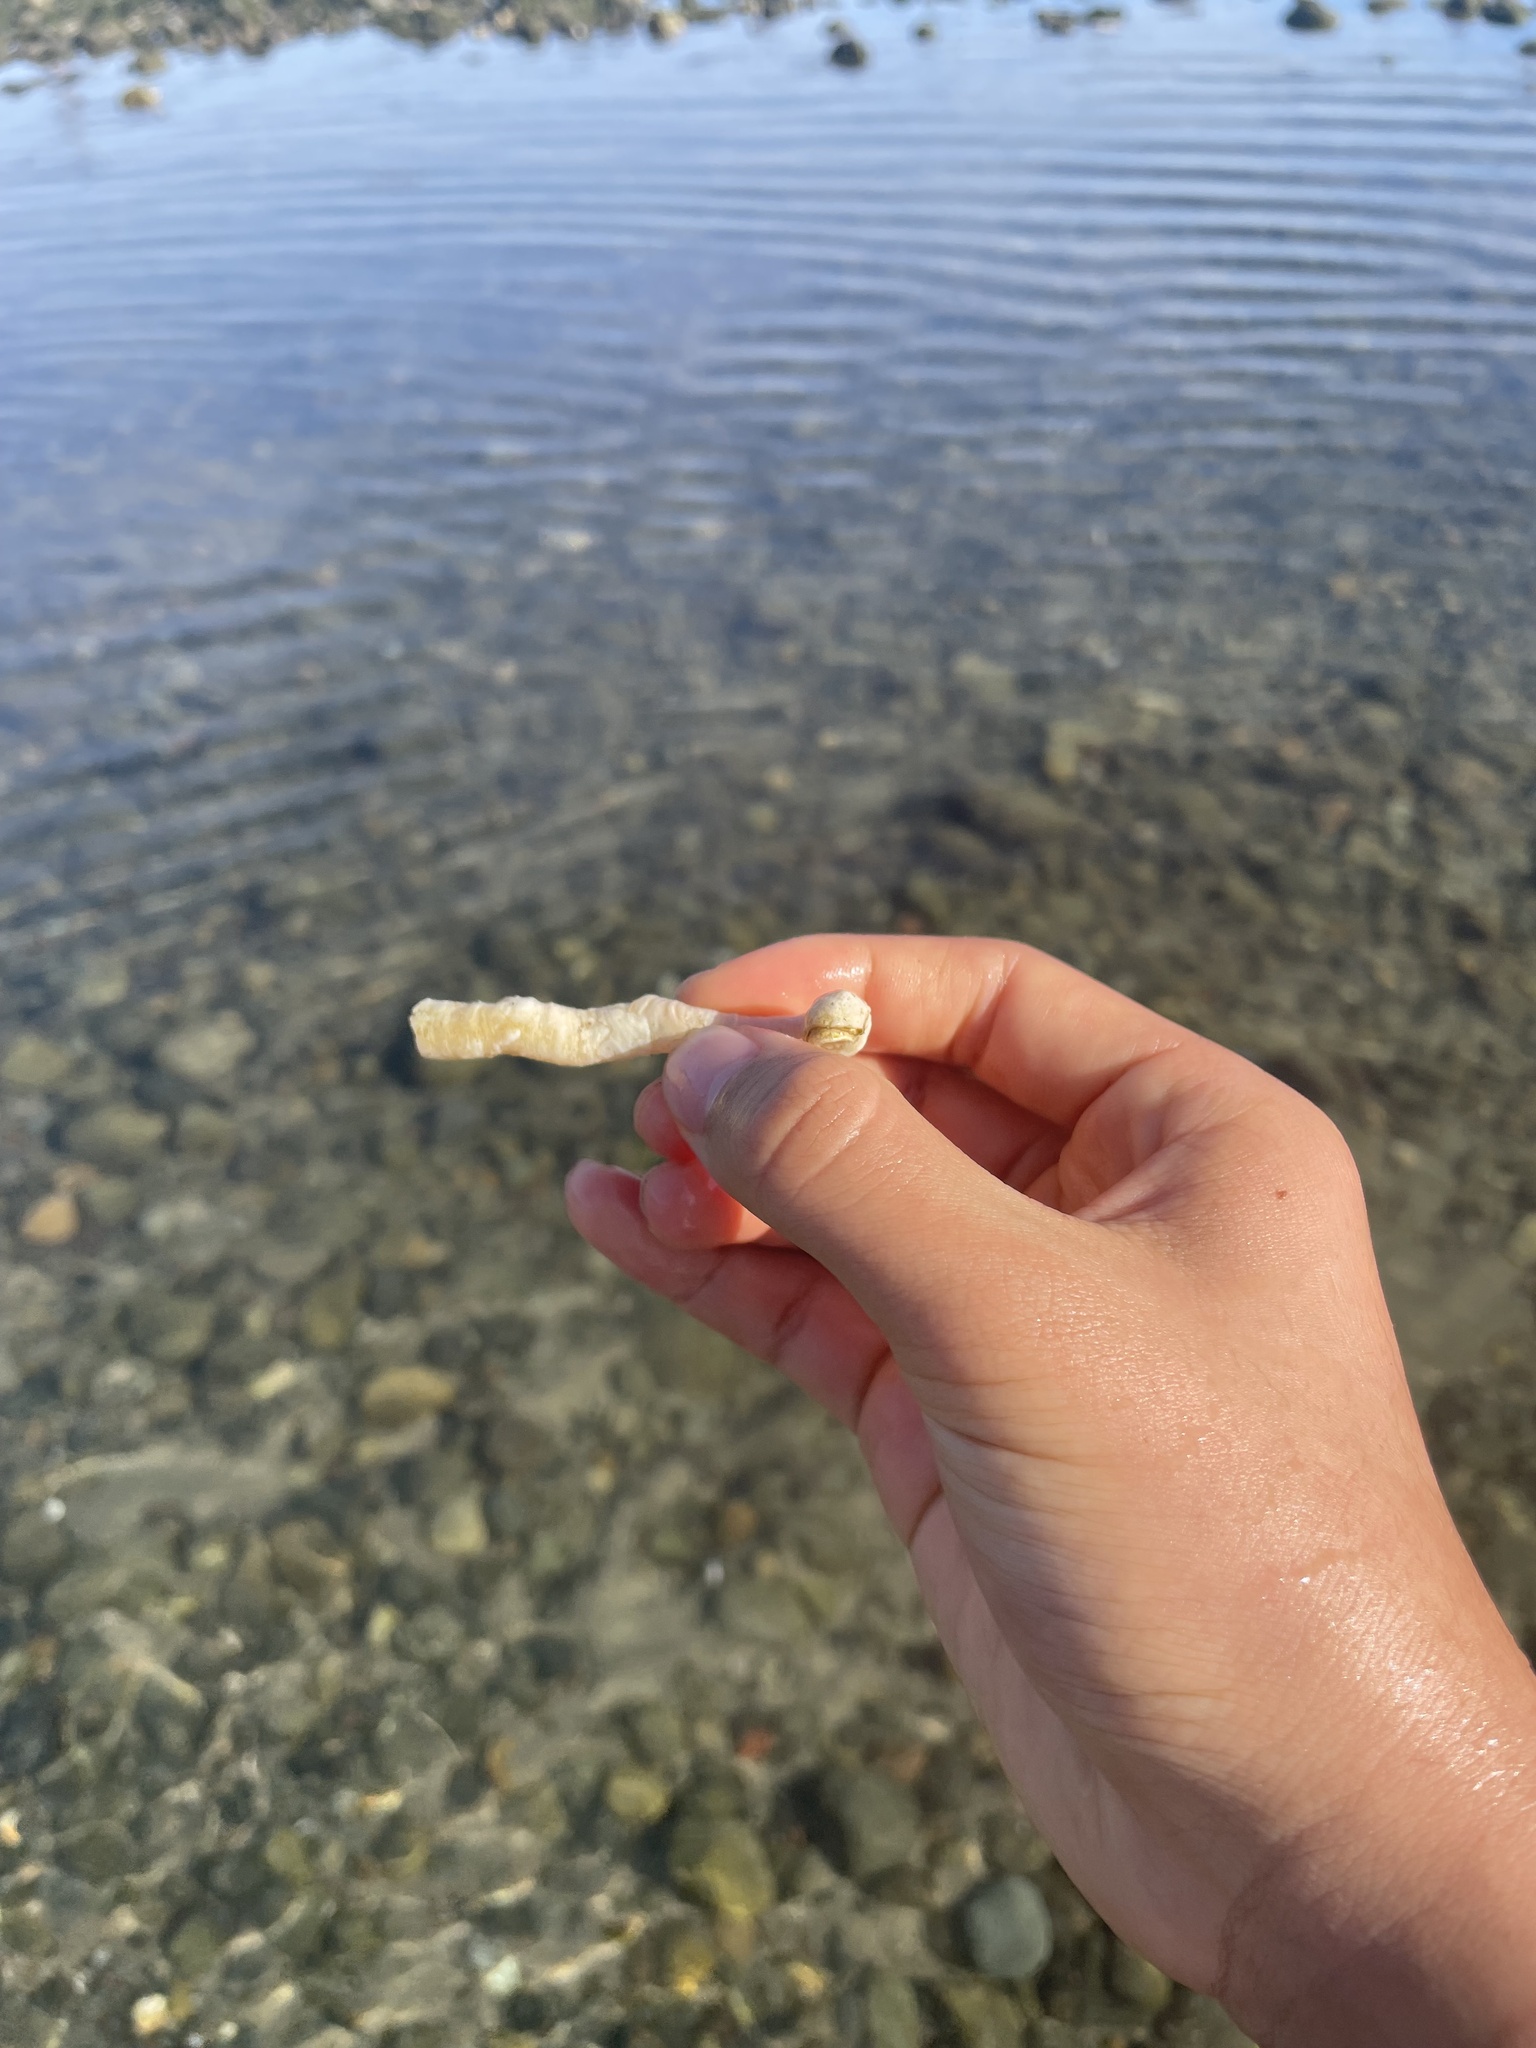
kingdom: Animalia
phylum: Mollusca
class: Gastropoda
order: Littorinimorpha
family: Vermetidae
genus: Thylacodes
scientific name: Thylacodes squamigerus
